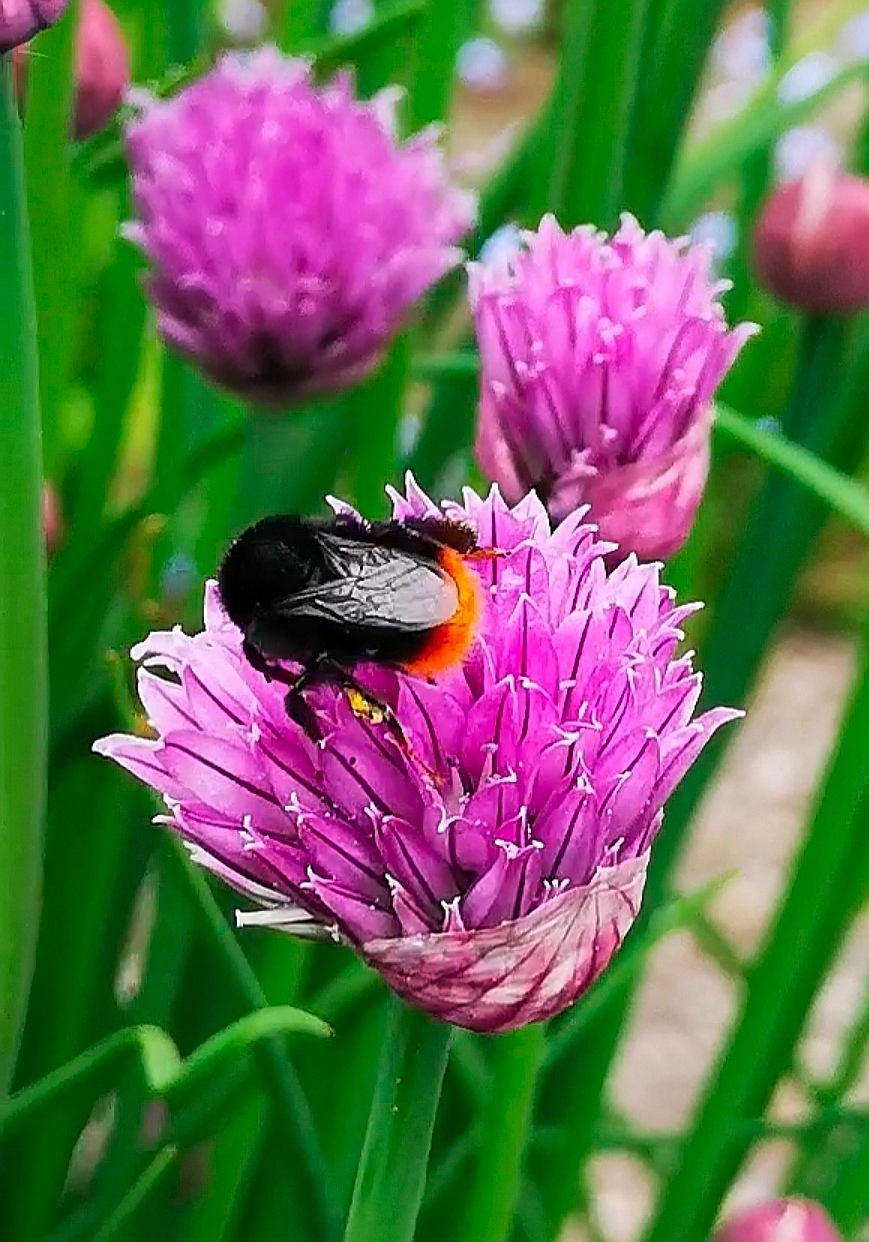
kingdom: Animalia
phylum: Arthropoda
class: Insecta
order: Hymenoptera
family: Apidae
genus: Bombus
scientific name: Bombus lapidarius
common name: Large red-tailed humble-bee
